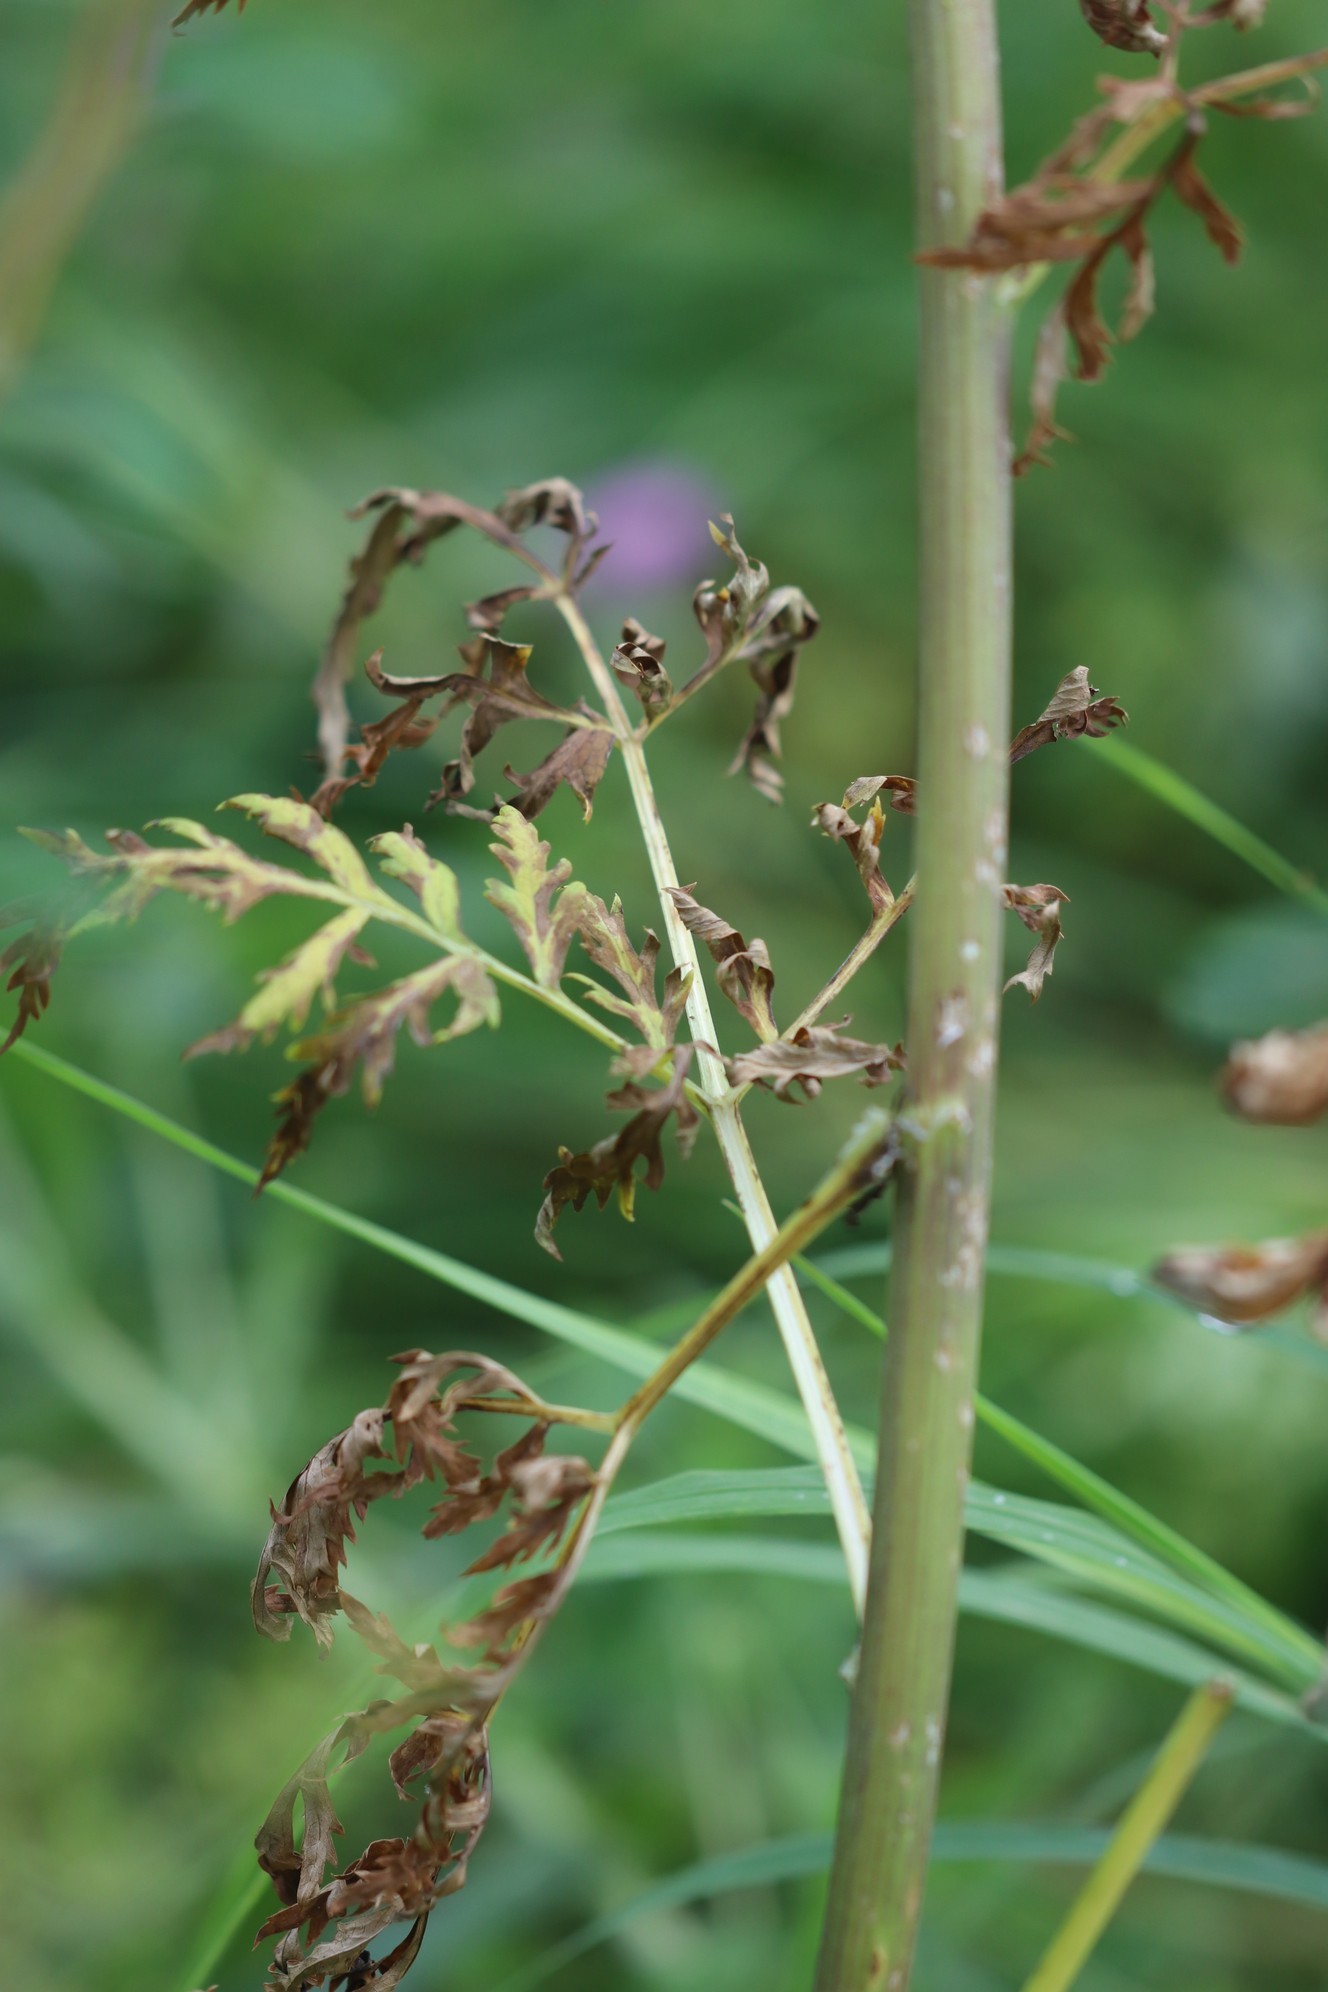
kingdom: Plantae
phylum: Tracheophyta
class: Magnoliopsida
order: Apiales
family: Apiaceae
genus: Pleurospermum
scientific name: Pleurospermum uralense
